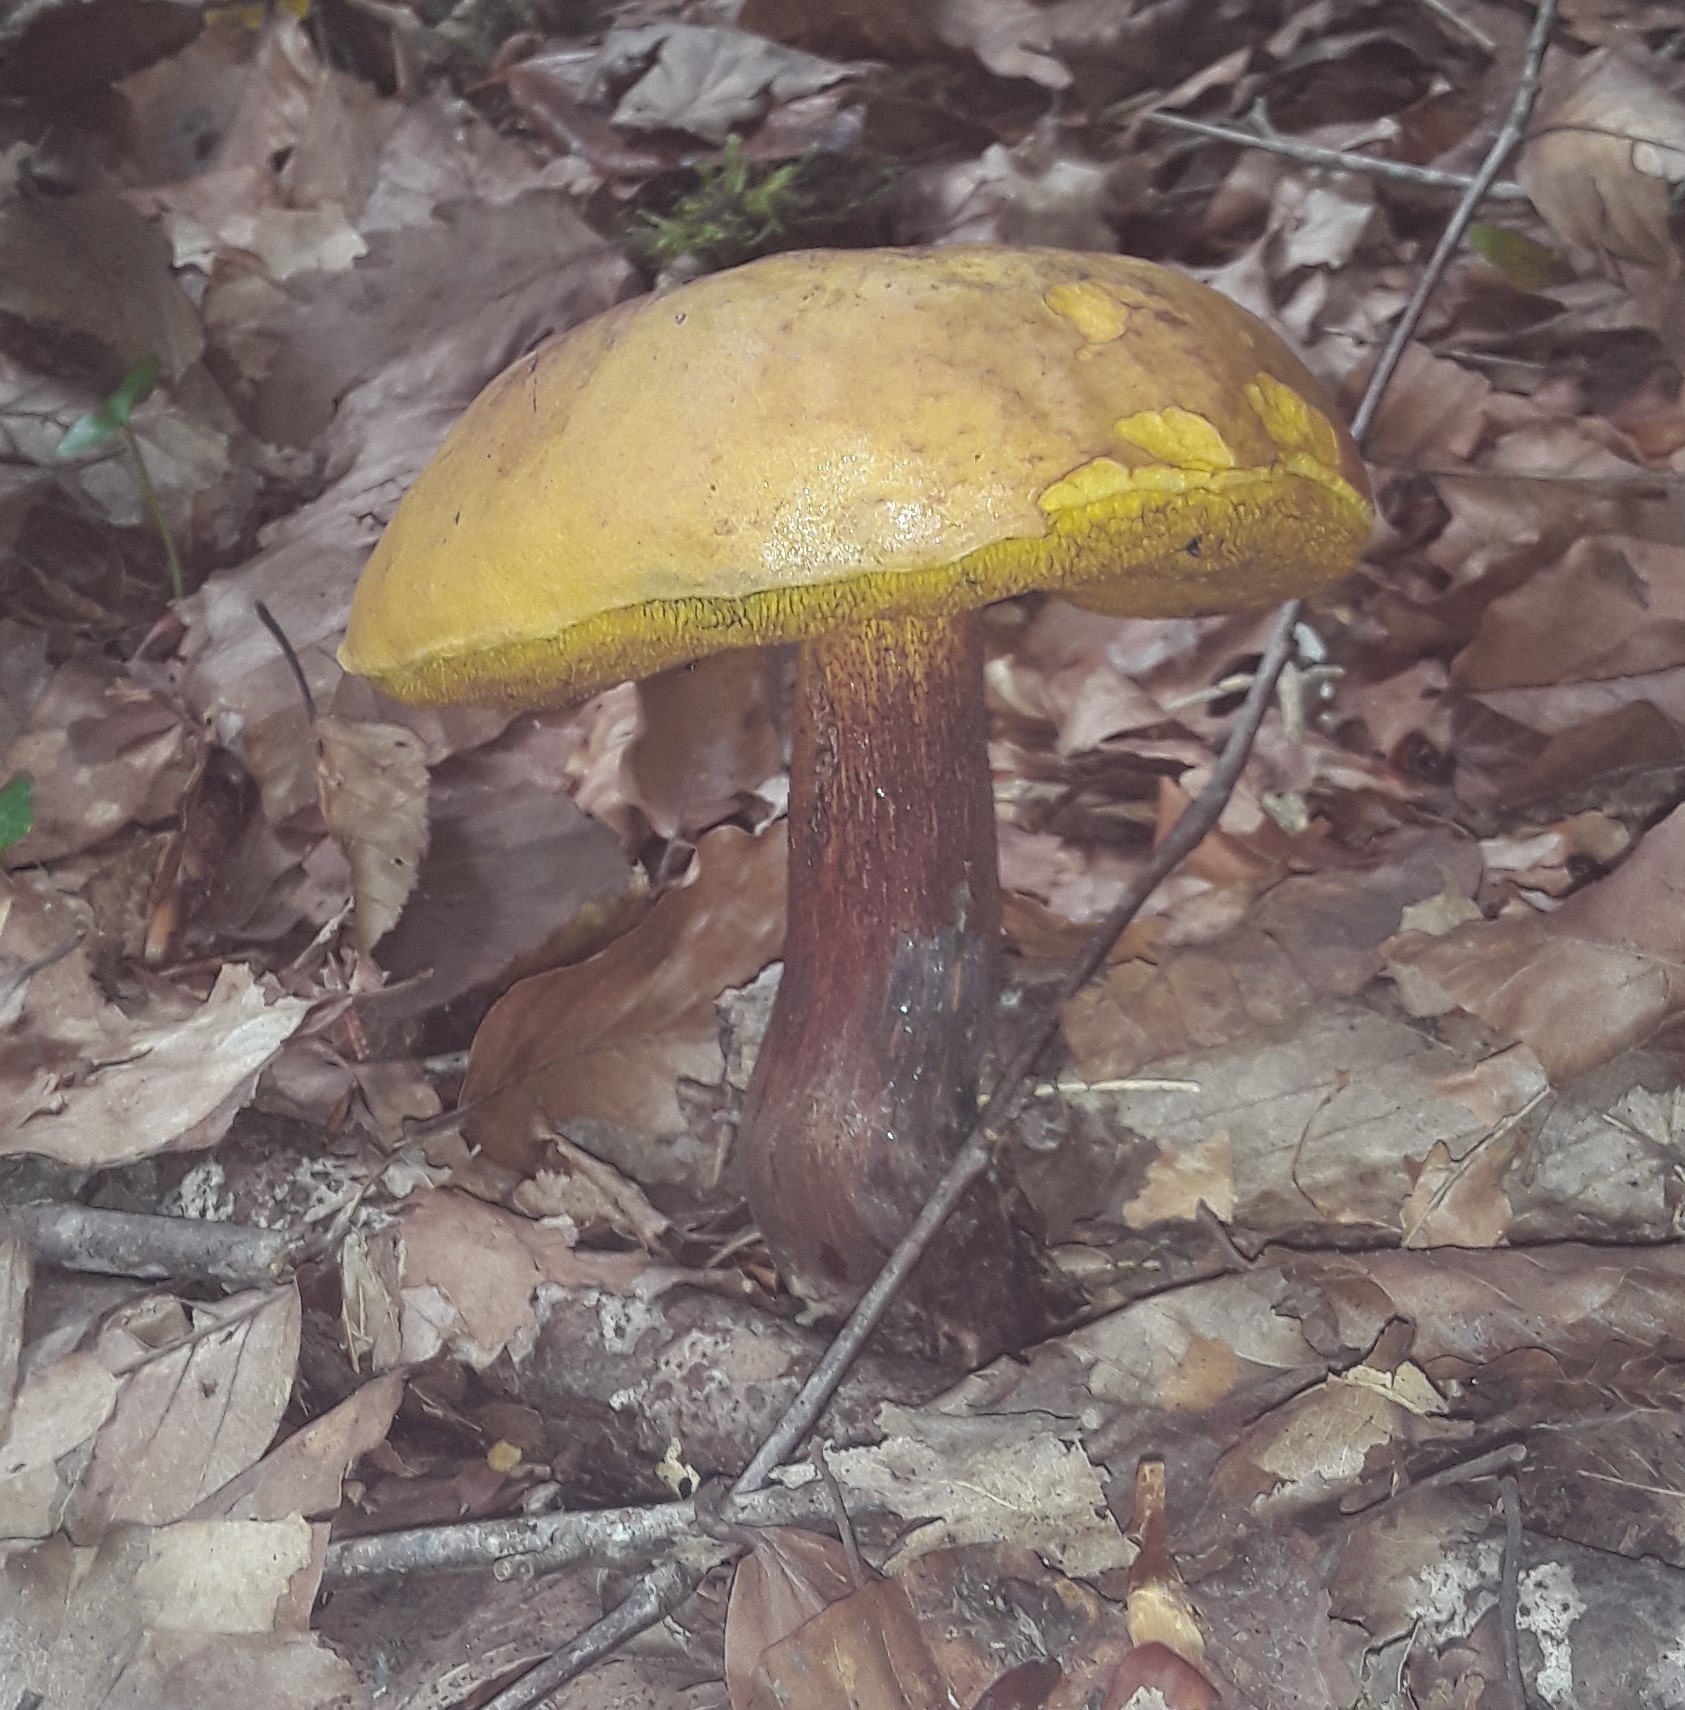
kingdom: Fungi
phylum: Basidiomycota
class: Agaricomycetes
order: Boletales
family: Boletaceae
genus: Suillellus
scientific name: Suillellus luridus
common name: Lurid bolete
